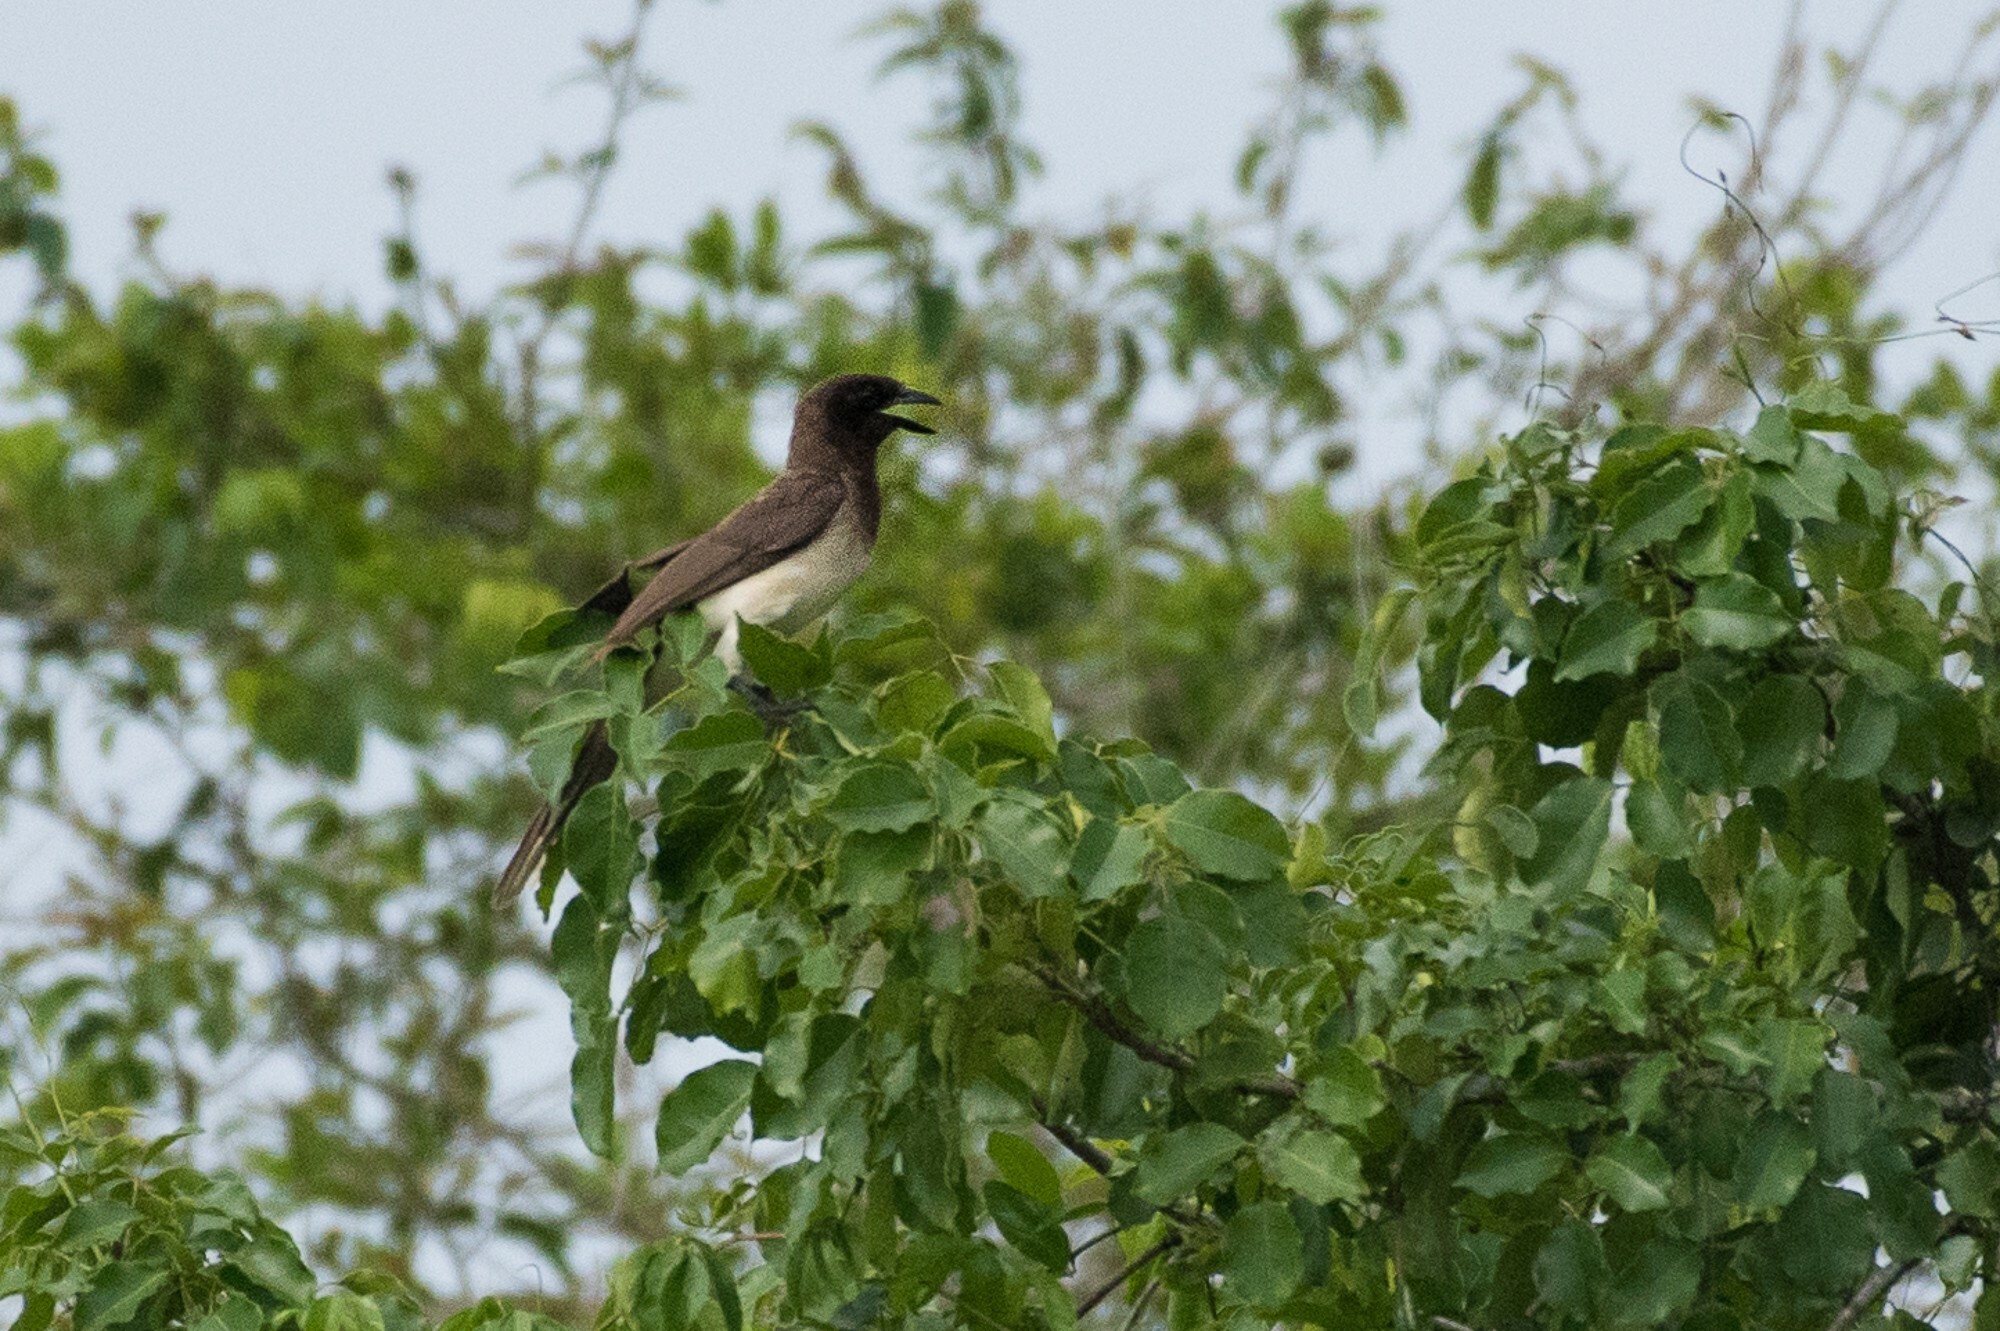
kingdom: Animalia
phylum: Chordata
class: Aves
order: Passeriformes
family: Corvidae
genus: Psilorhinus
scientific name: Psilorhinus morio
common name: Brown jay
